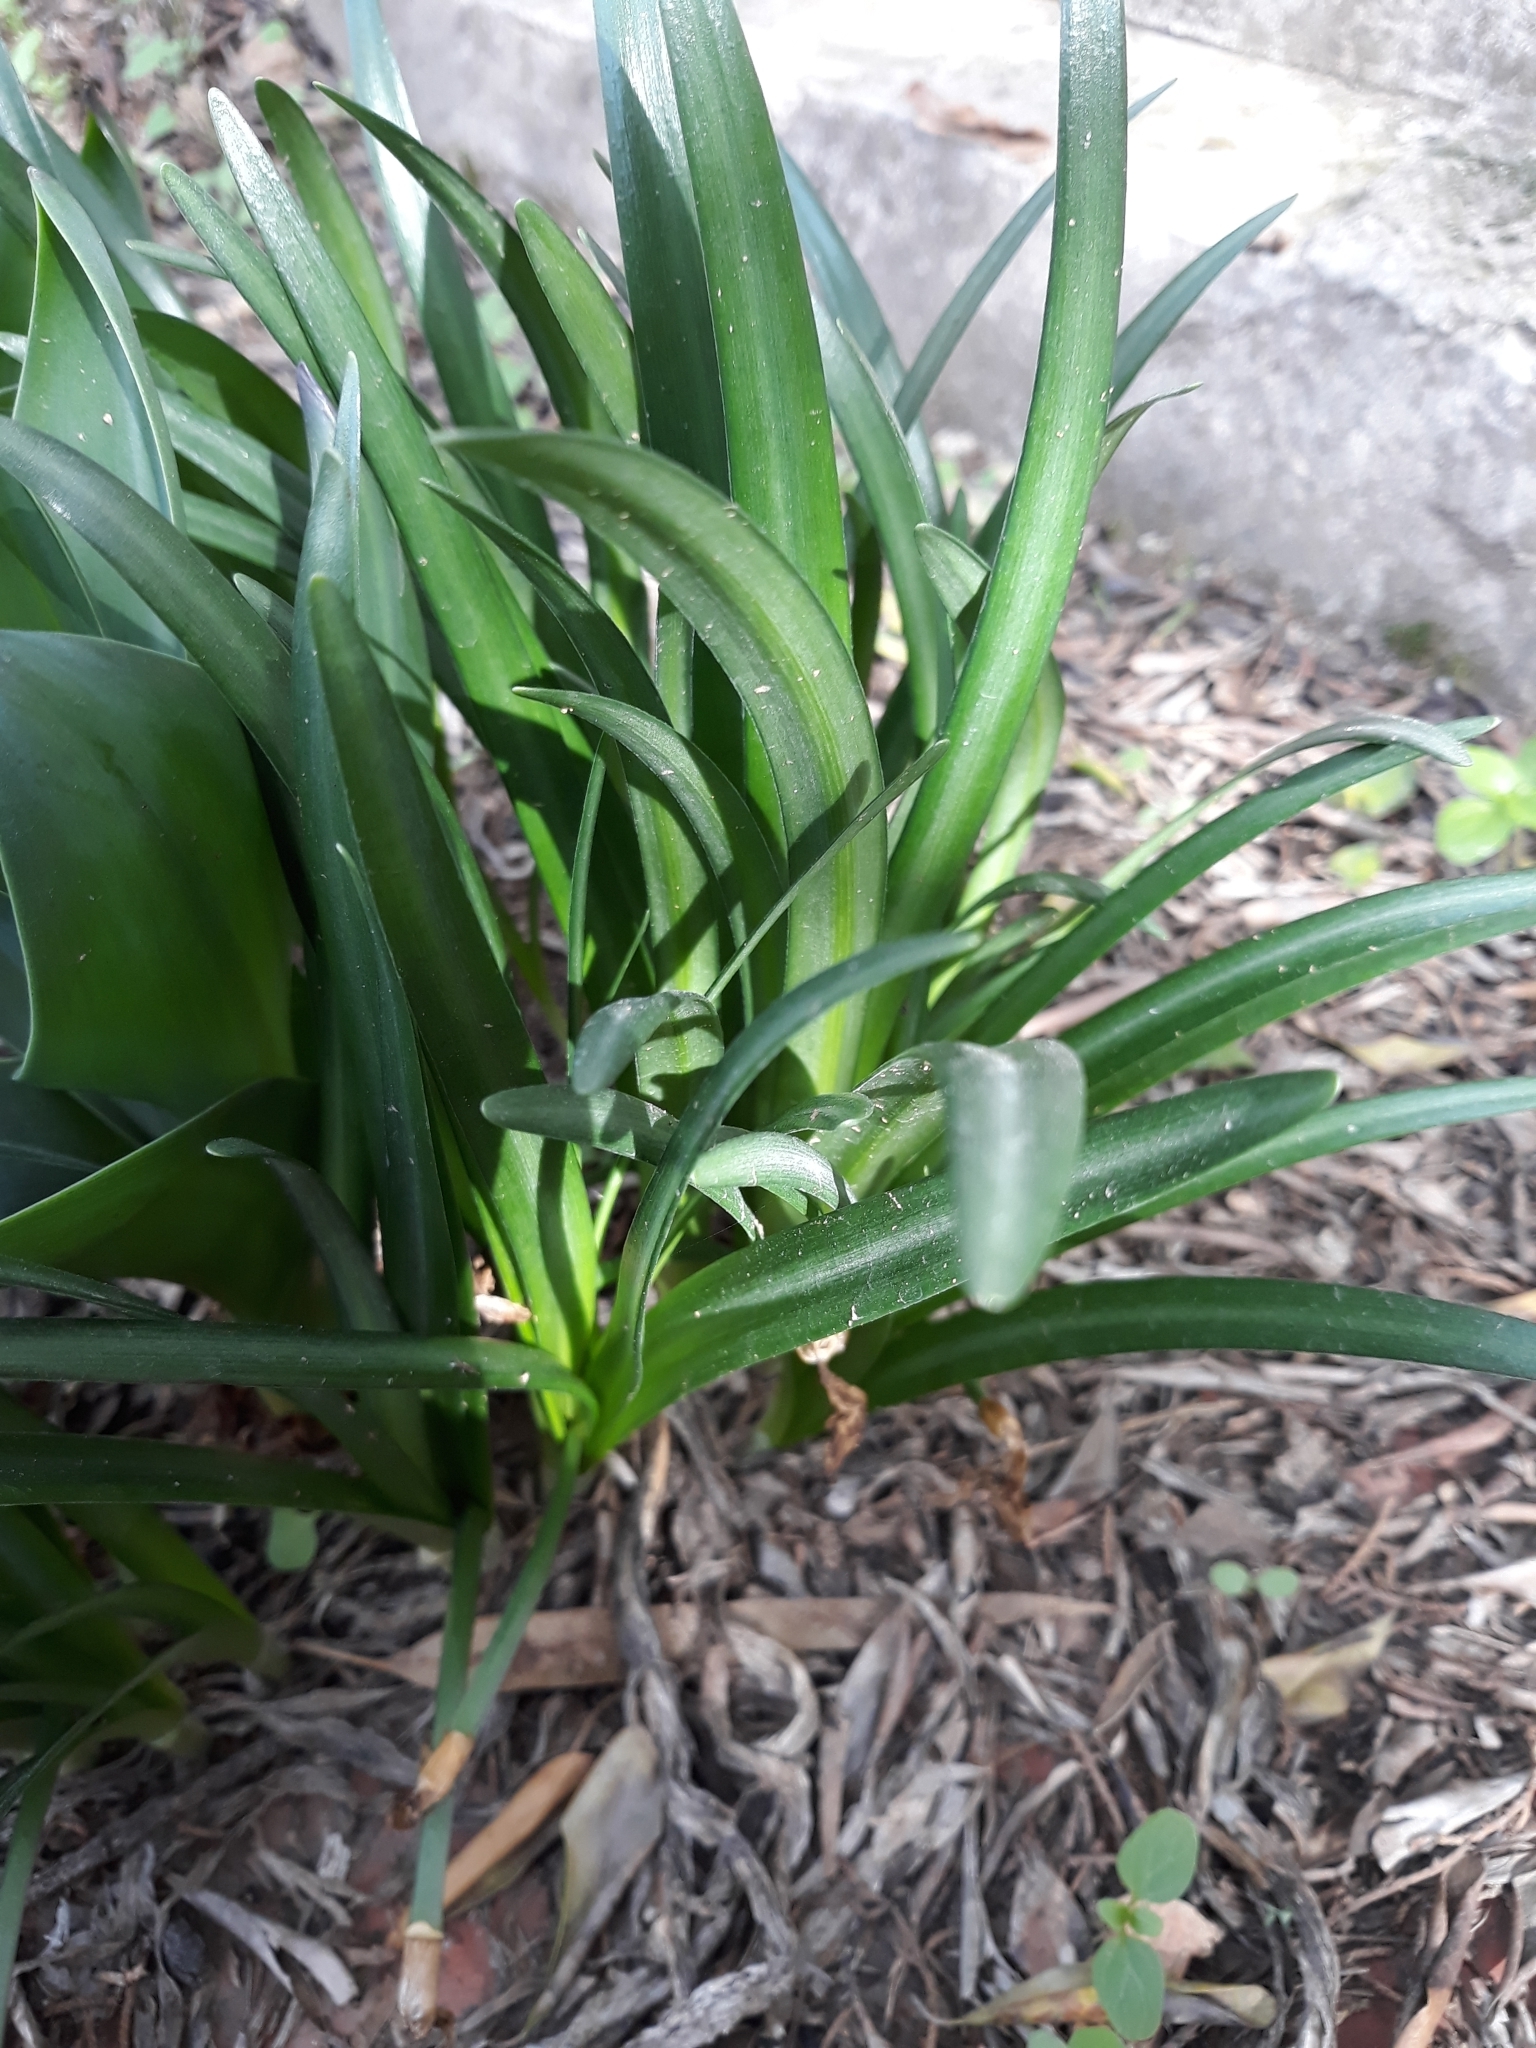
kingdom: Plantae
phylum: Tracheophyta
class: Liliopsida
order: Asparagales
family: Amaryllidaceae
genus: Sternbergia
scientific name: Sternbergia lutea
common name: Winter daffodil
